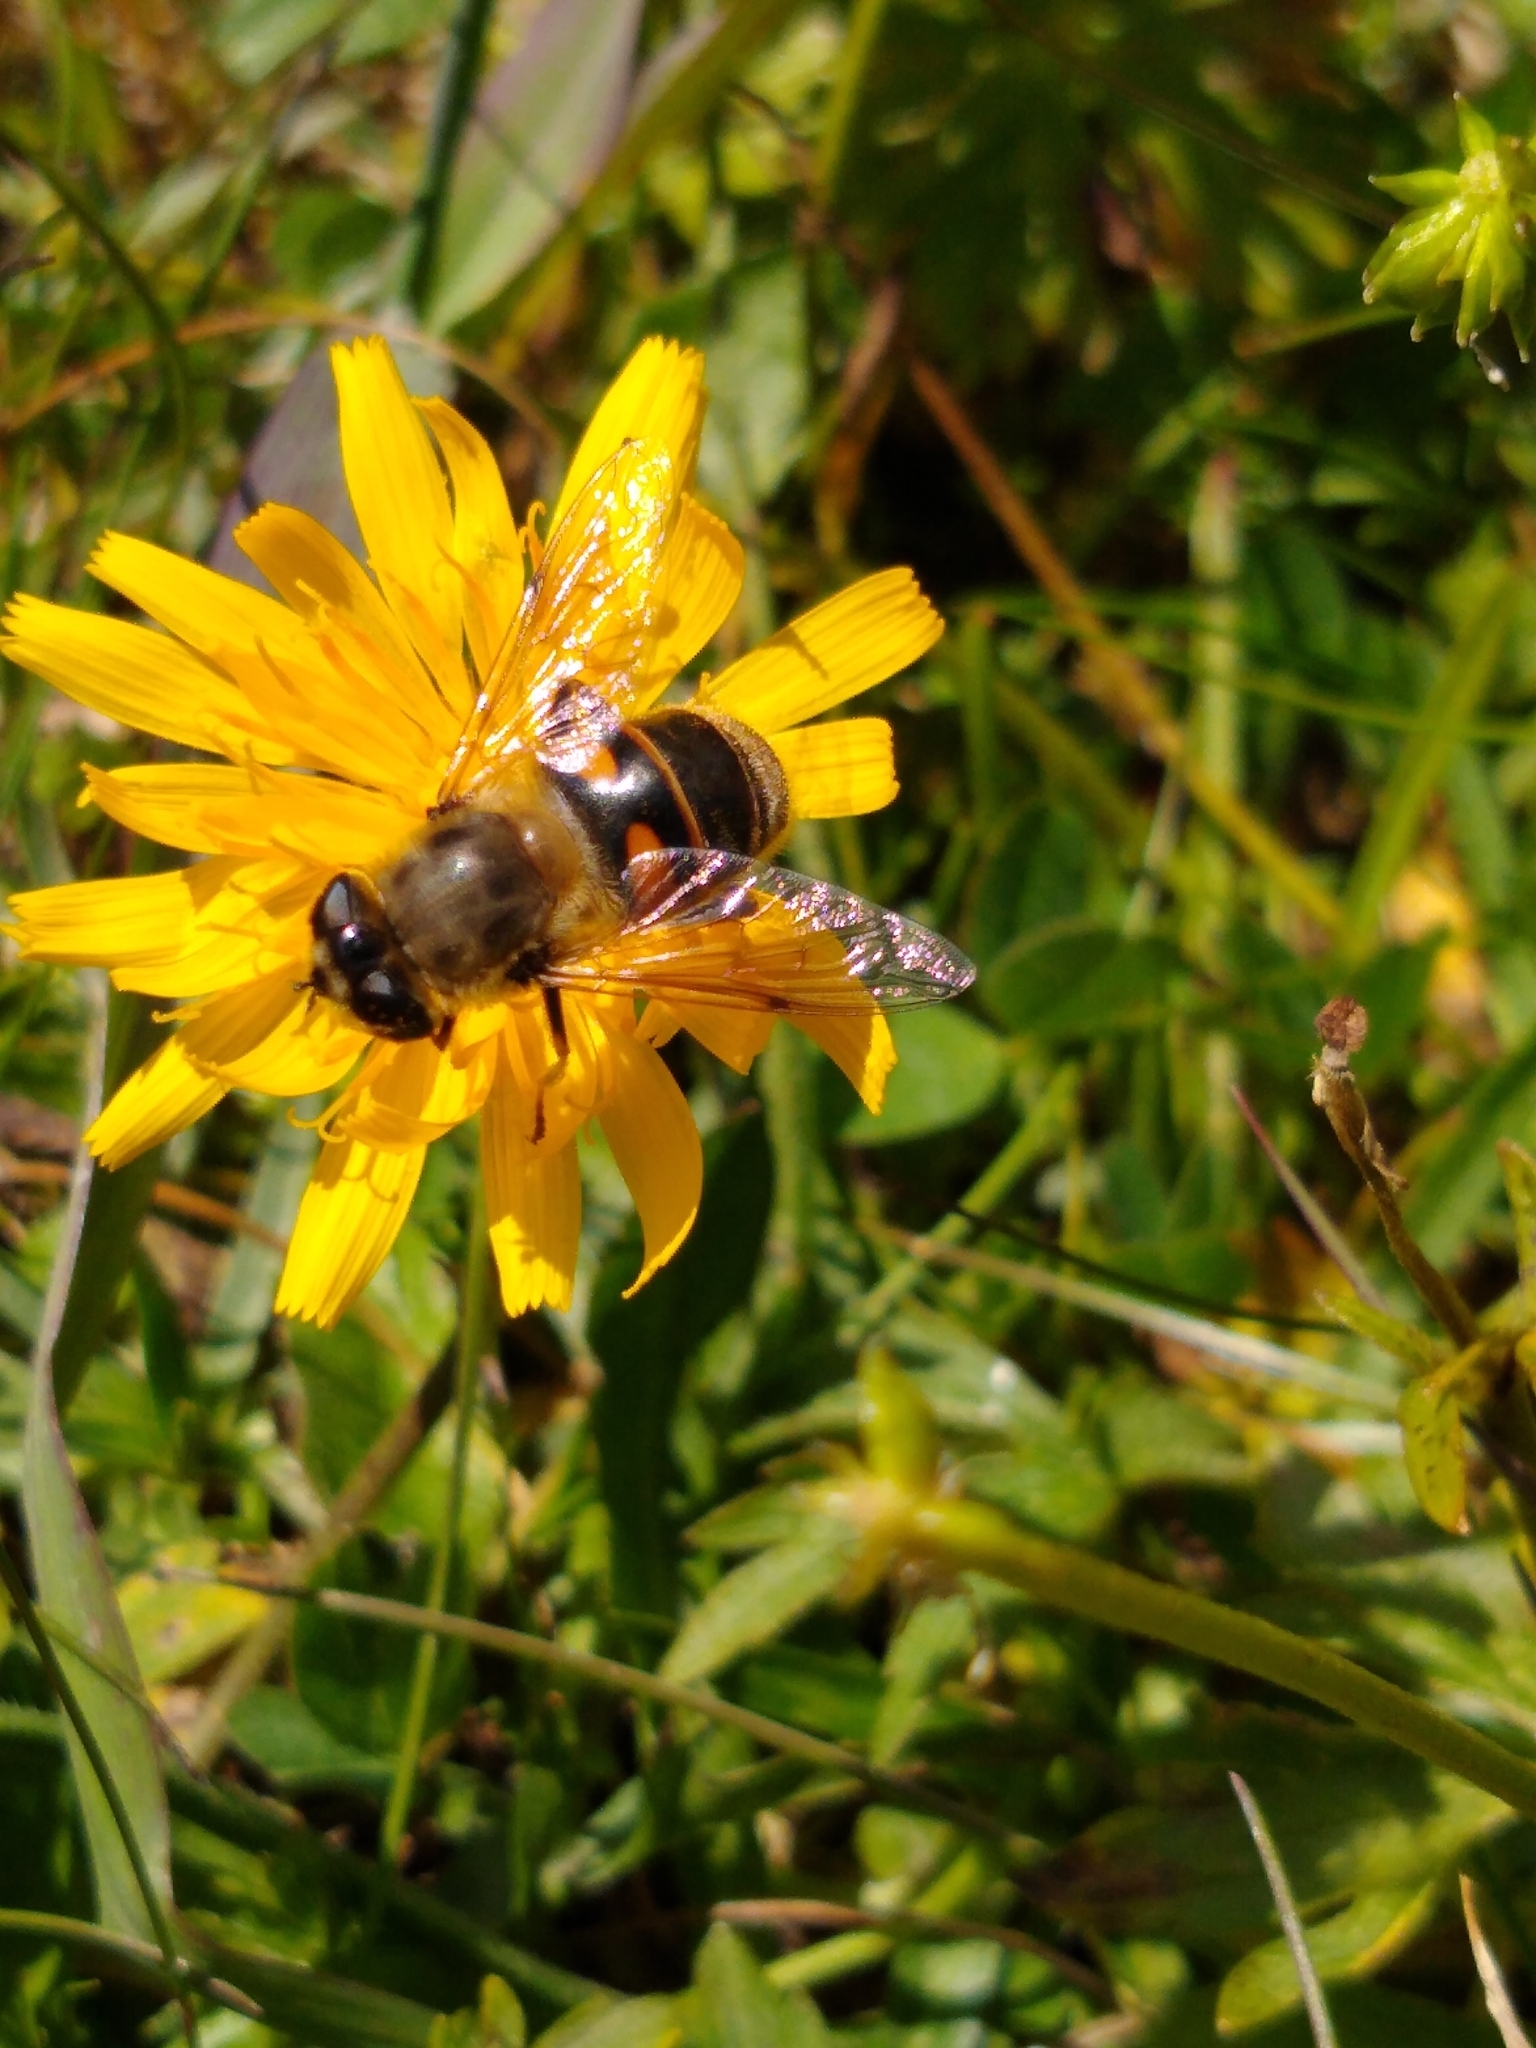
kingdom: Animalia
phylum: Arthropoda
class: Insecta
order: Diptera
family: Syrphidae
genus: Eristalis
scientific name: Eristalis tenax
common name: Drone fly
